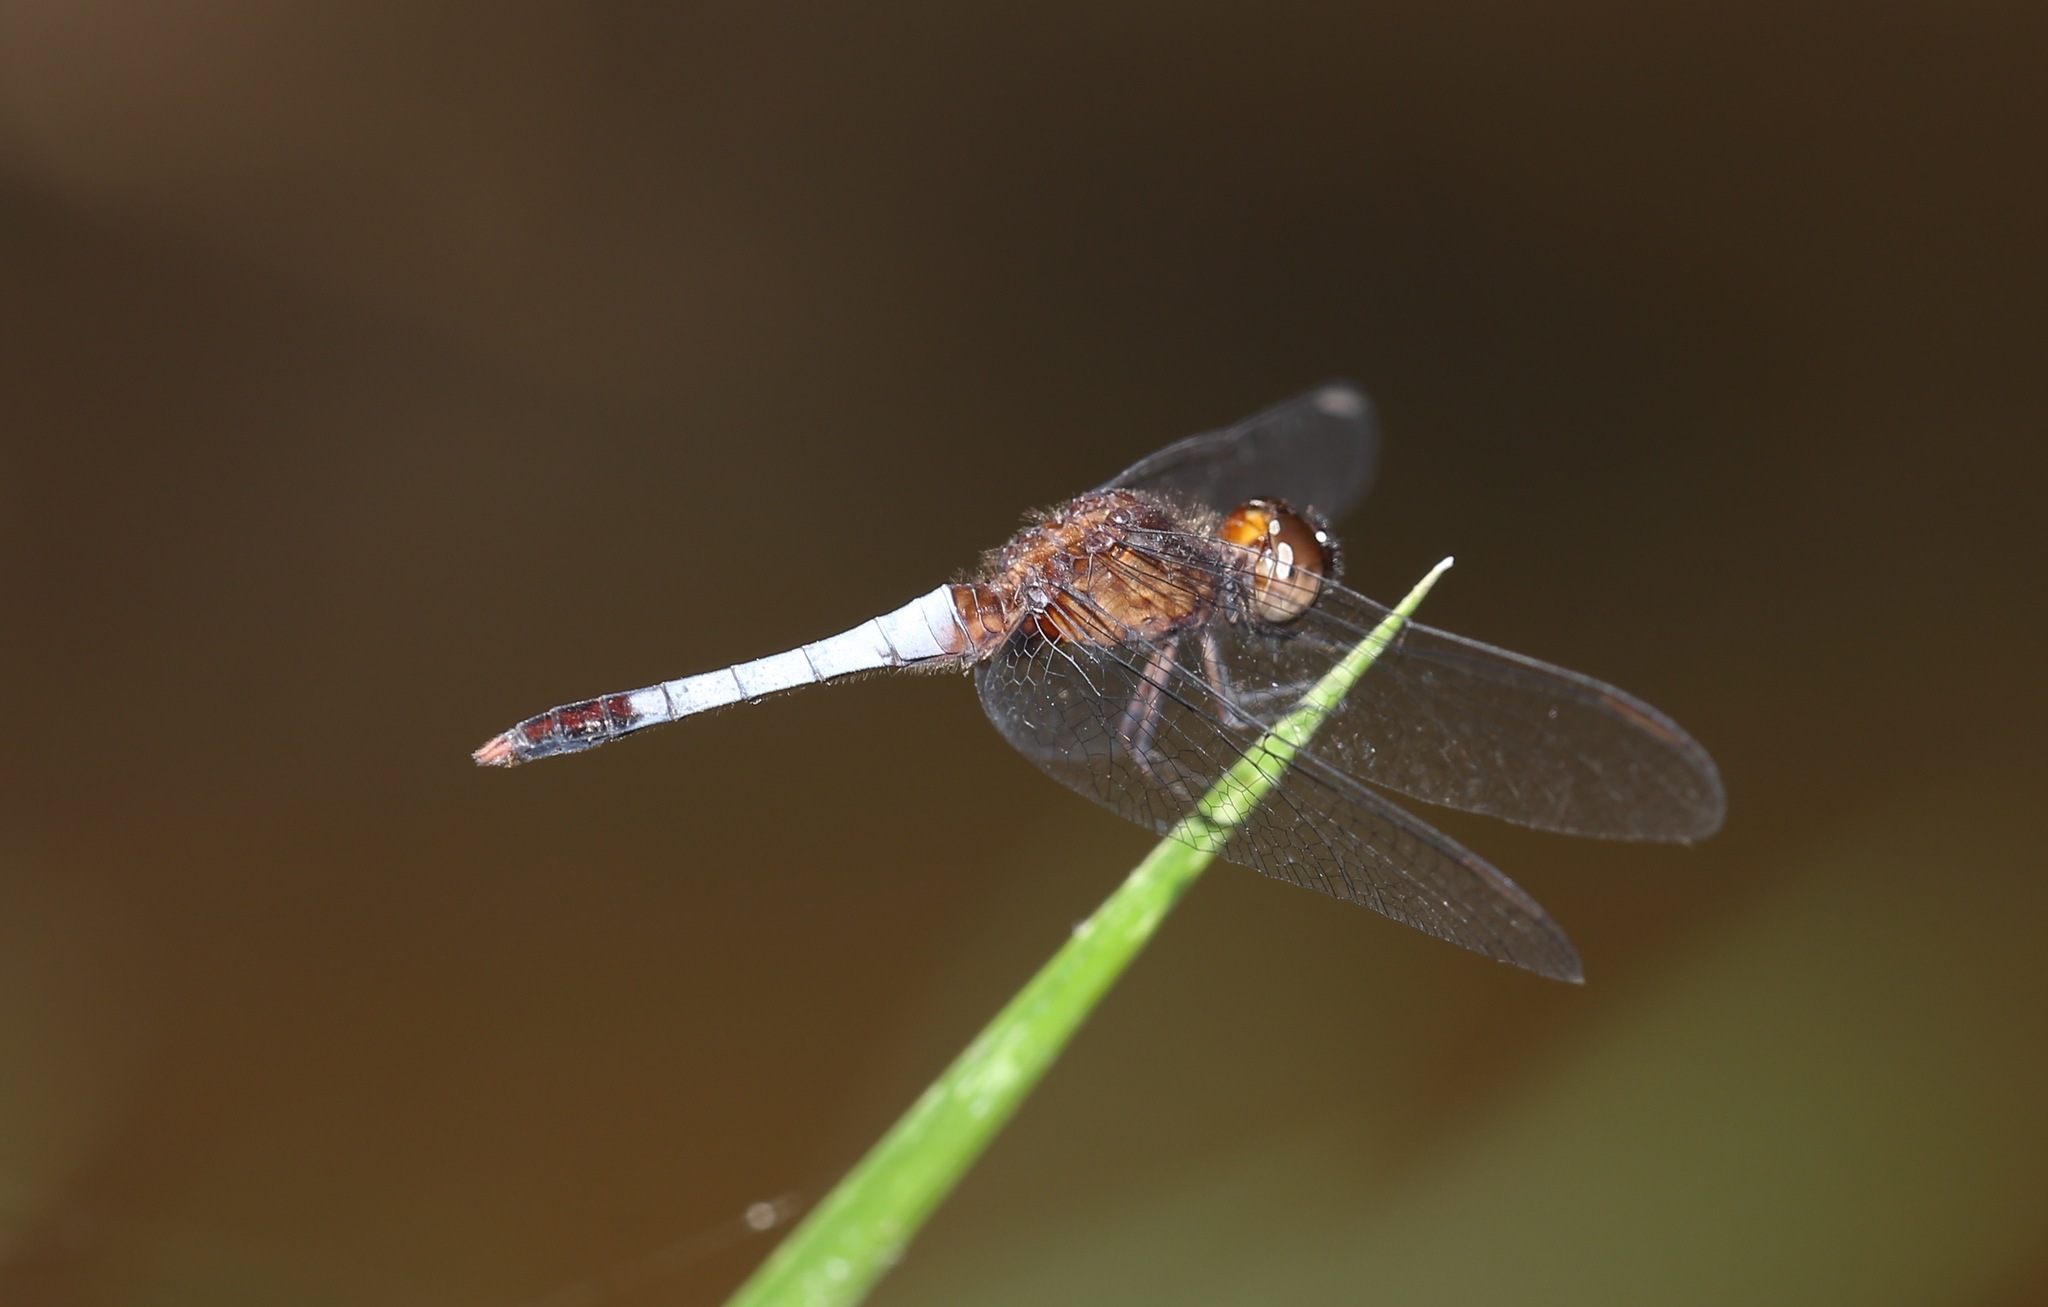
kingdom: Animalia
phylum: Arthropoda
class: Insecta
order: Odonata
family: Libellulidae
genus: Erythrodiplax
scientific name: Erythrodiplax basifusca
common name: Plateau dragonlet
